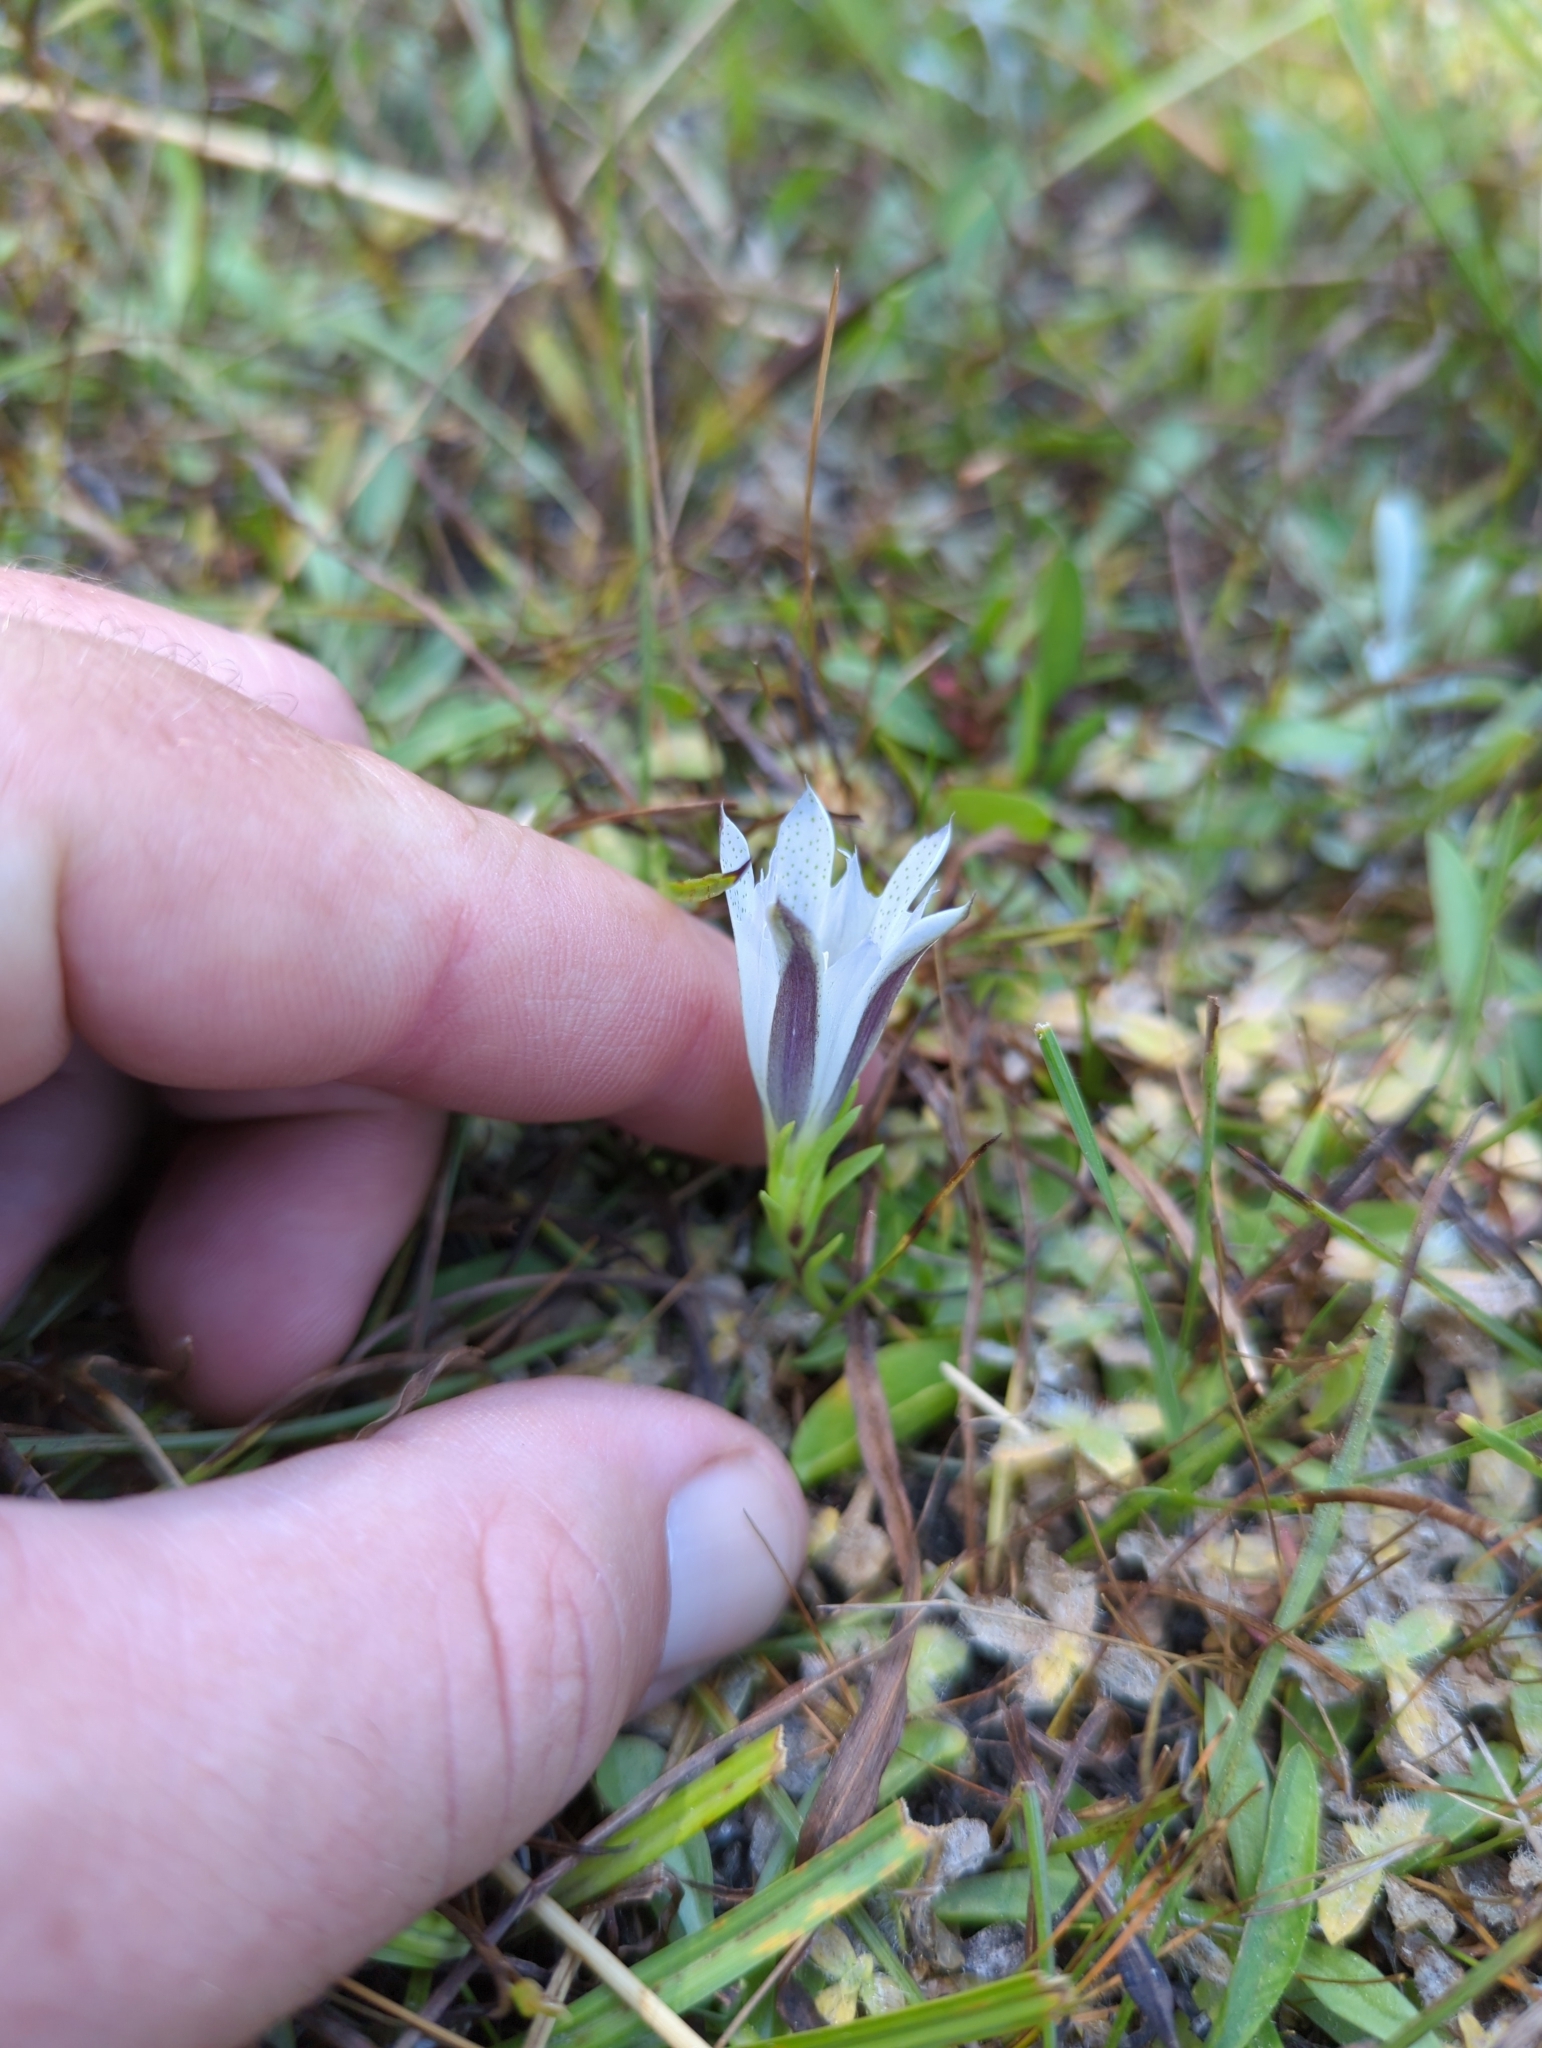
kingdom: Plantae
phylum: Tracheophyta
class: Magnoliopsida
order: Gentianales
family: Gentianaceae
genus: Gentiana
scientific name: Gentiana newberryi
